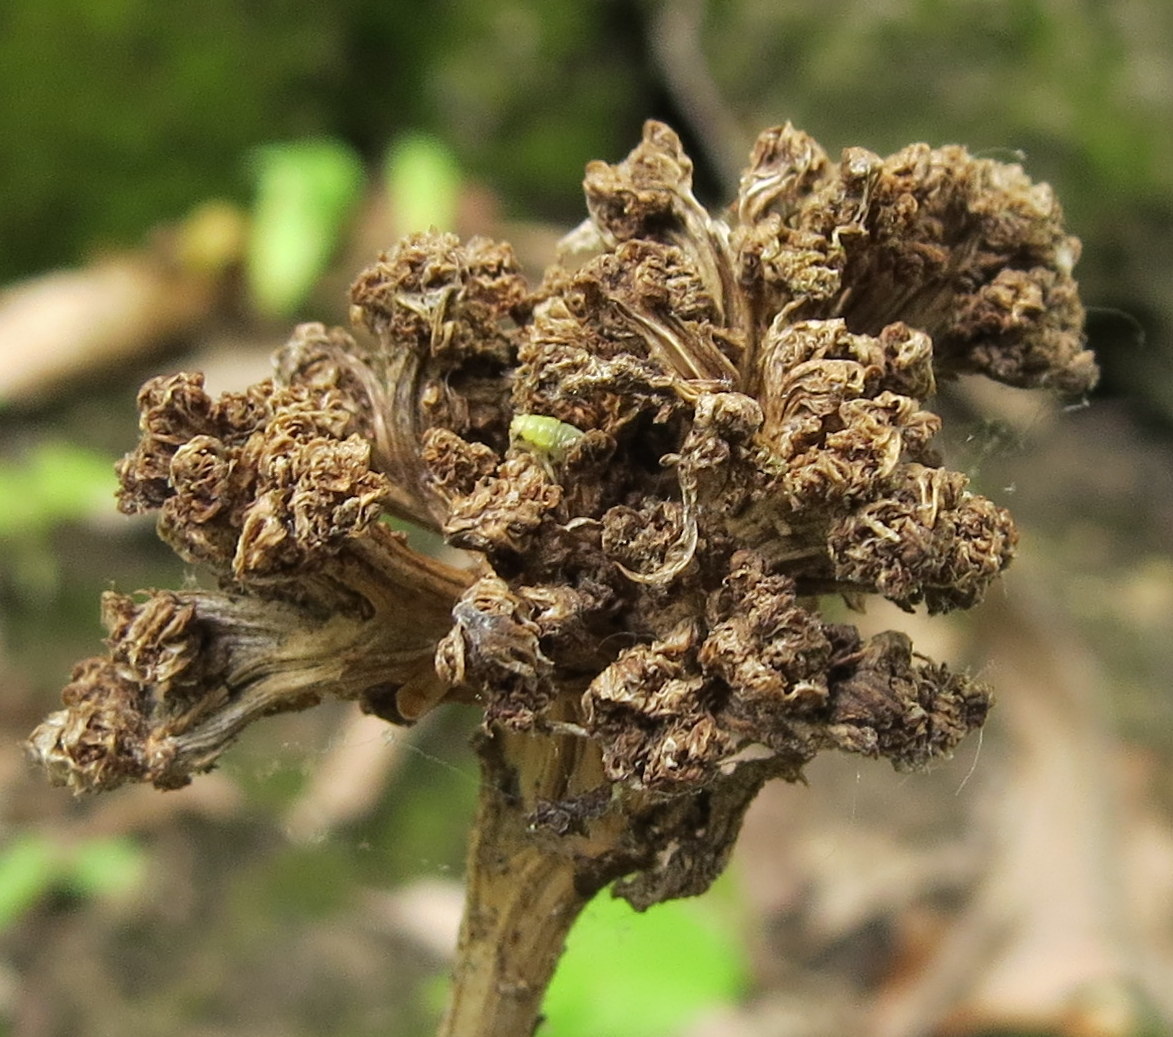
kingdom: Animalia
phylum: Arthropoda
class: Arachnida
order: Trombidiformes
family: Eriophyidae
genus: Aceria
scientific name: Aceria fraxiniflora
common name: Ash flower gall mite
